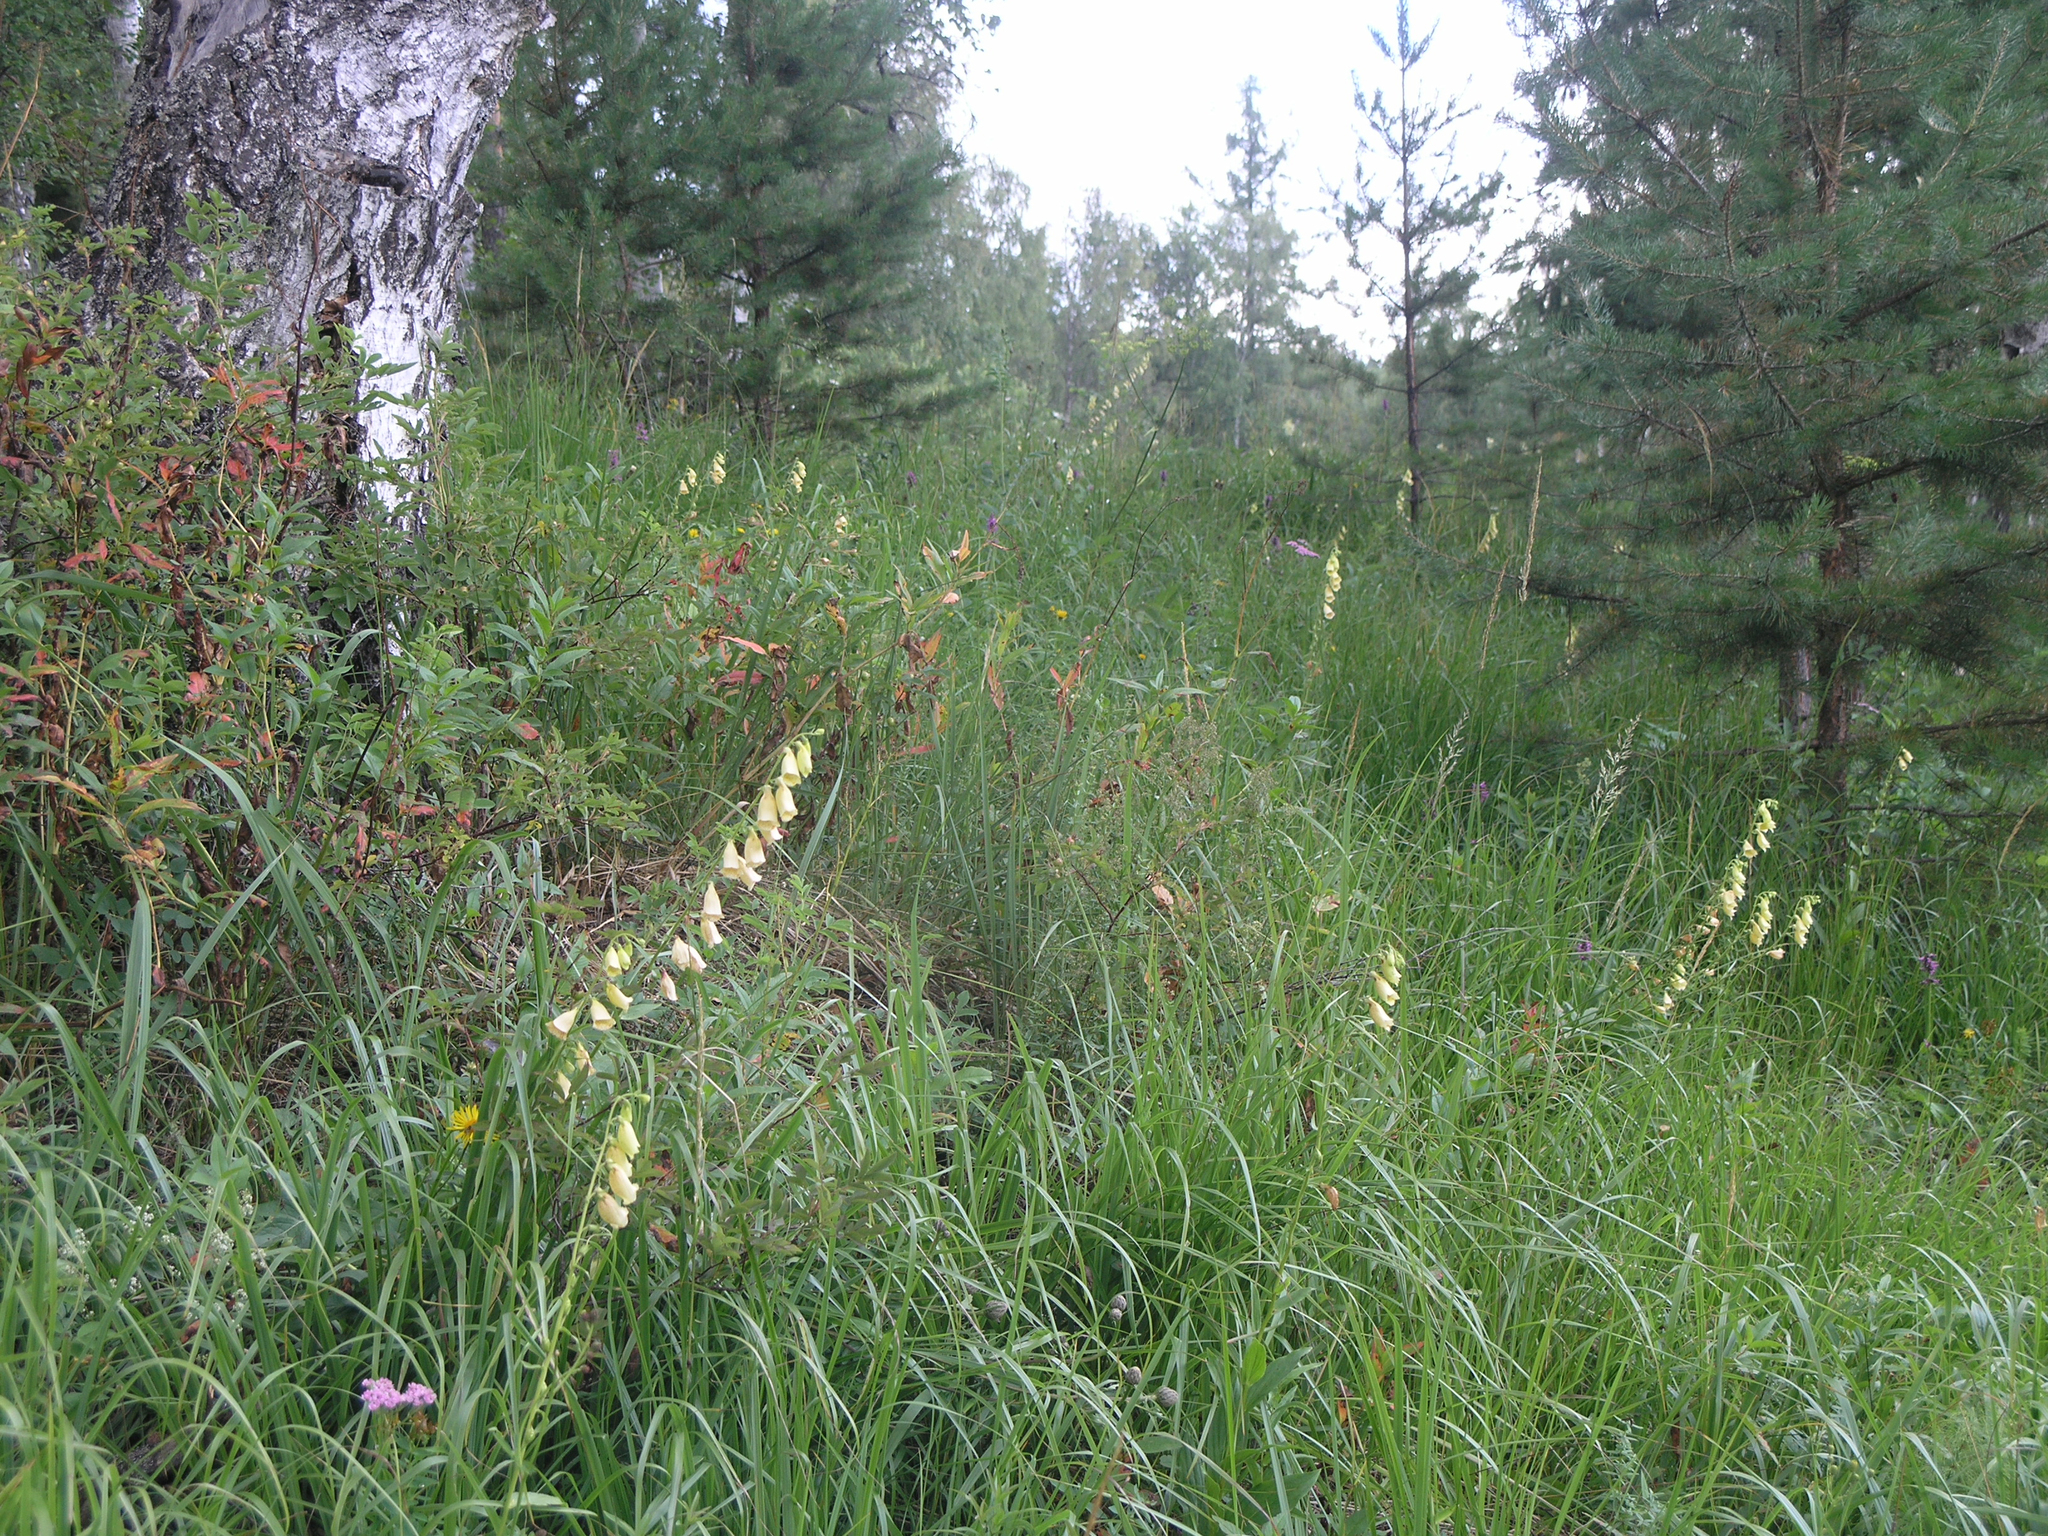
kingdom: Plantae
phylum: Tracheophyta
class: Magnoliopsida
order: Lamiales
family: Plantaginaceae
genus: Digitalis
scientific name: Digitalis grandiflora
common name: Yellow foxglove
